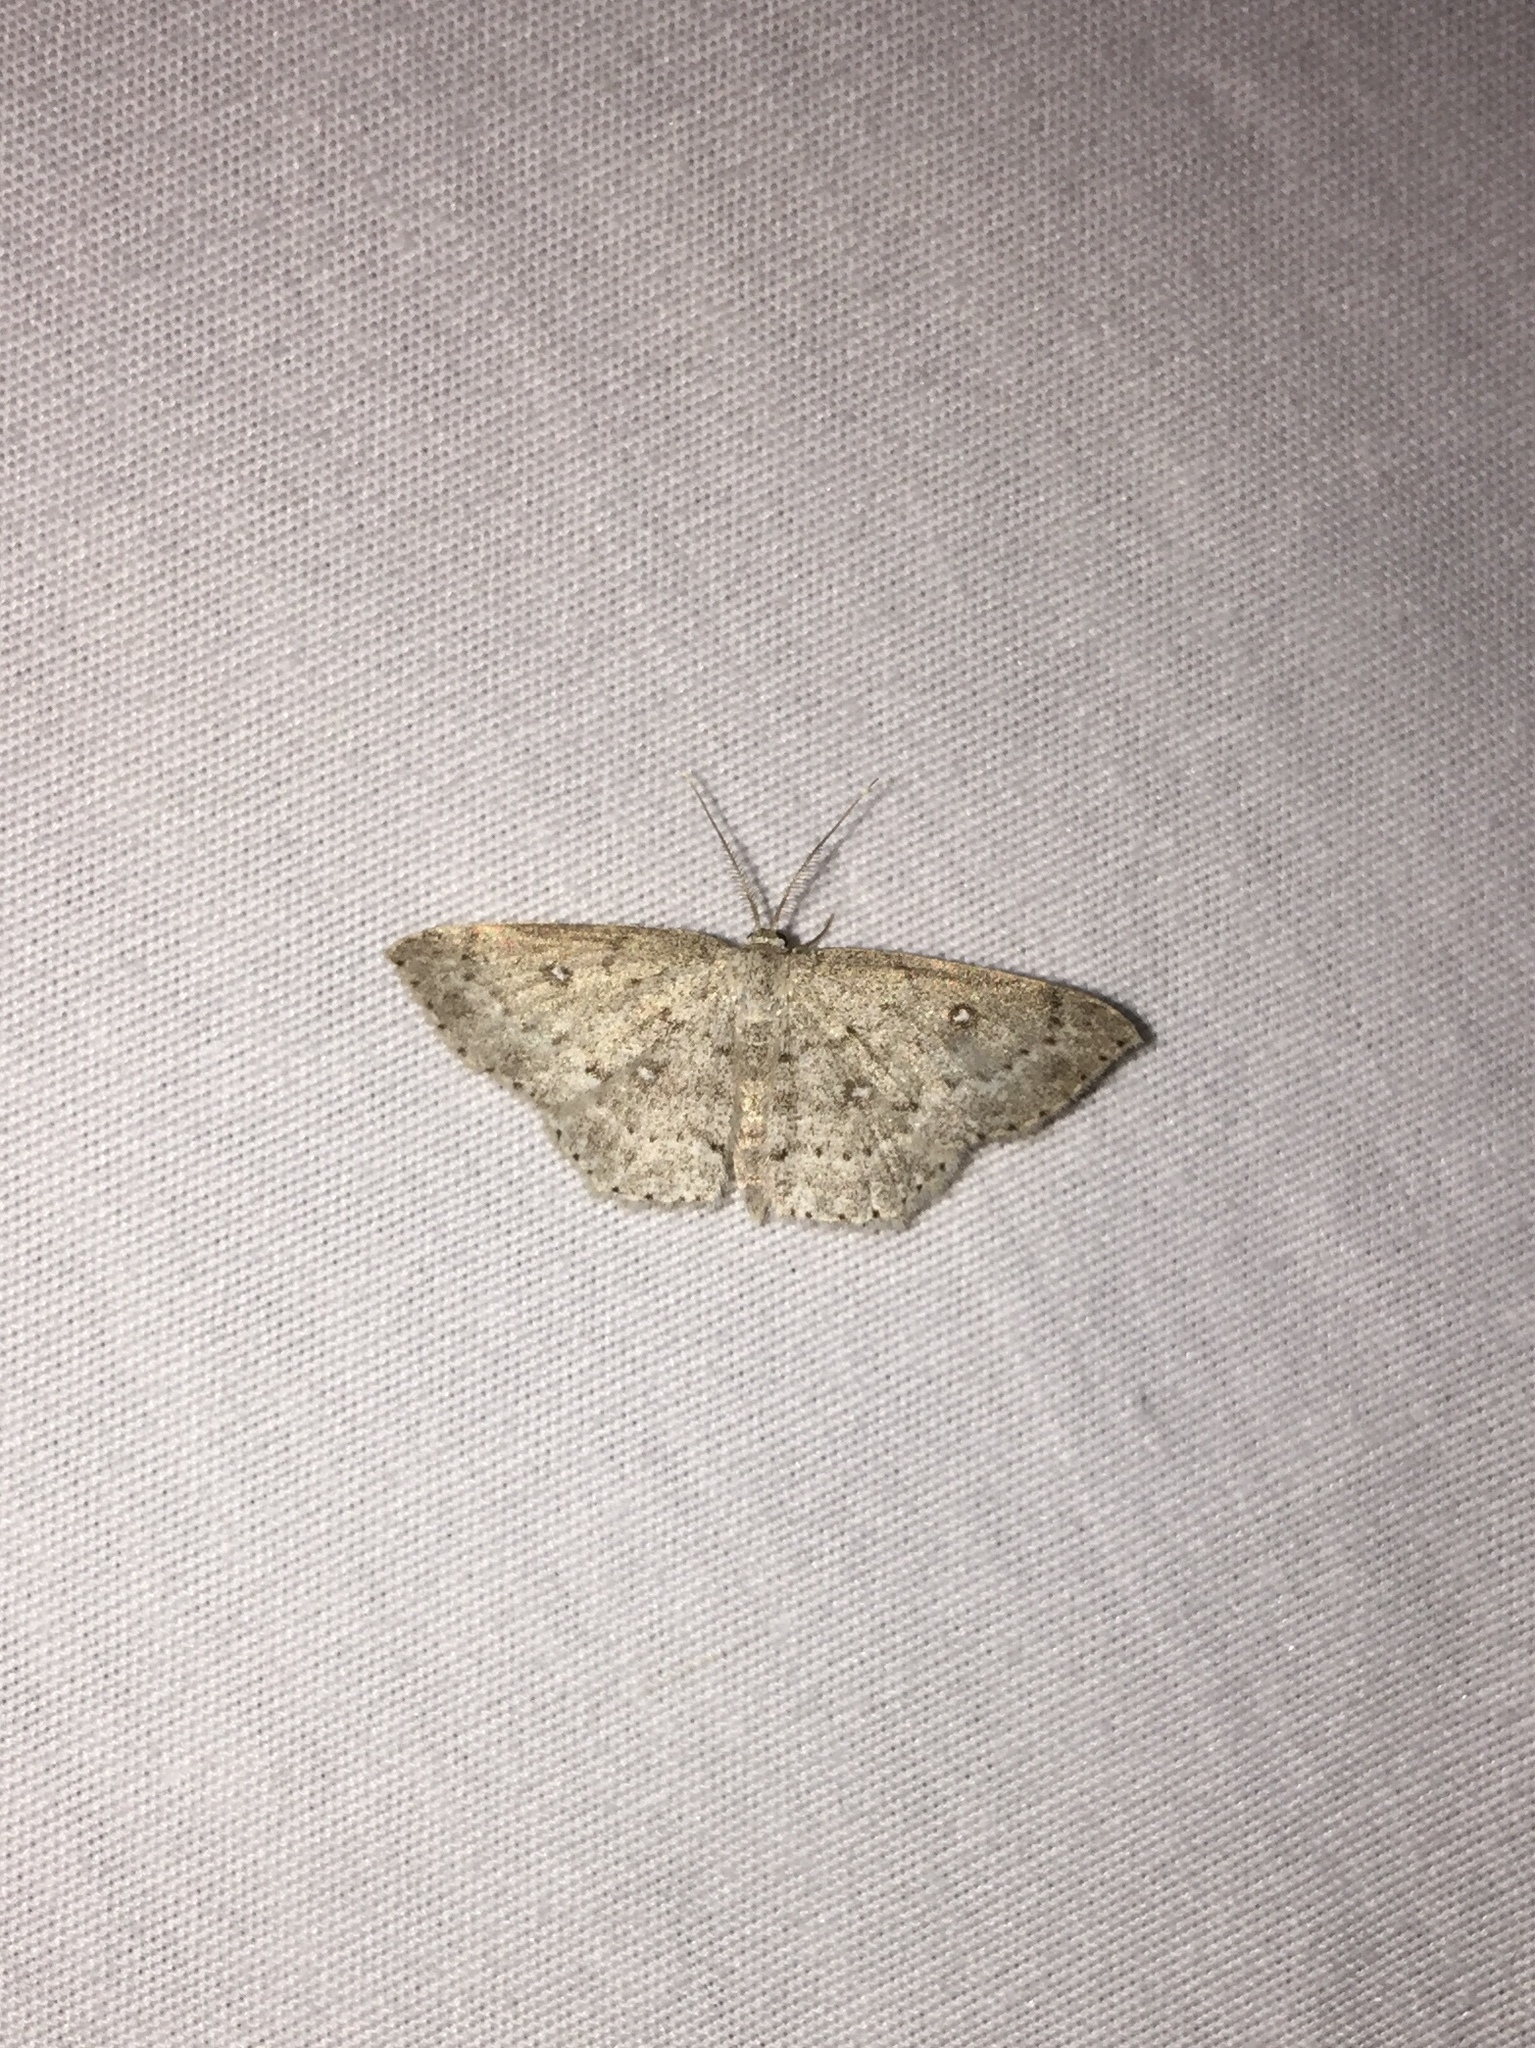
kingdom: Animalia
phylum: Arthropoda
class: Insecta
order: Lepidoptera
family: Geometridae
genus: Cyclophora
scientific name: Cyclophora pendulinaria
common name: Sweet fern geometer
